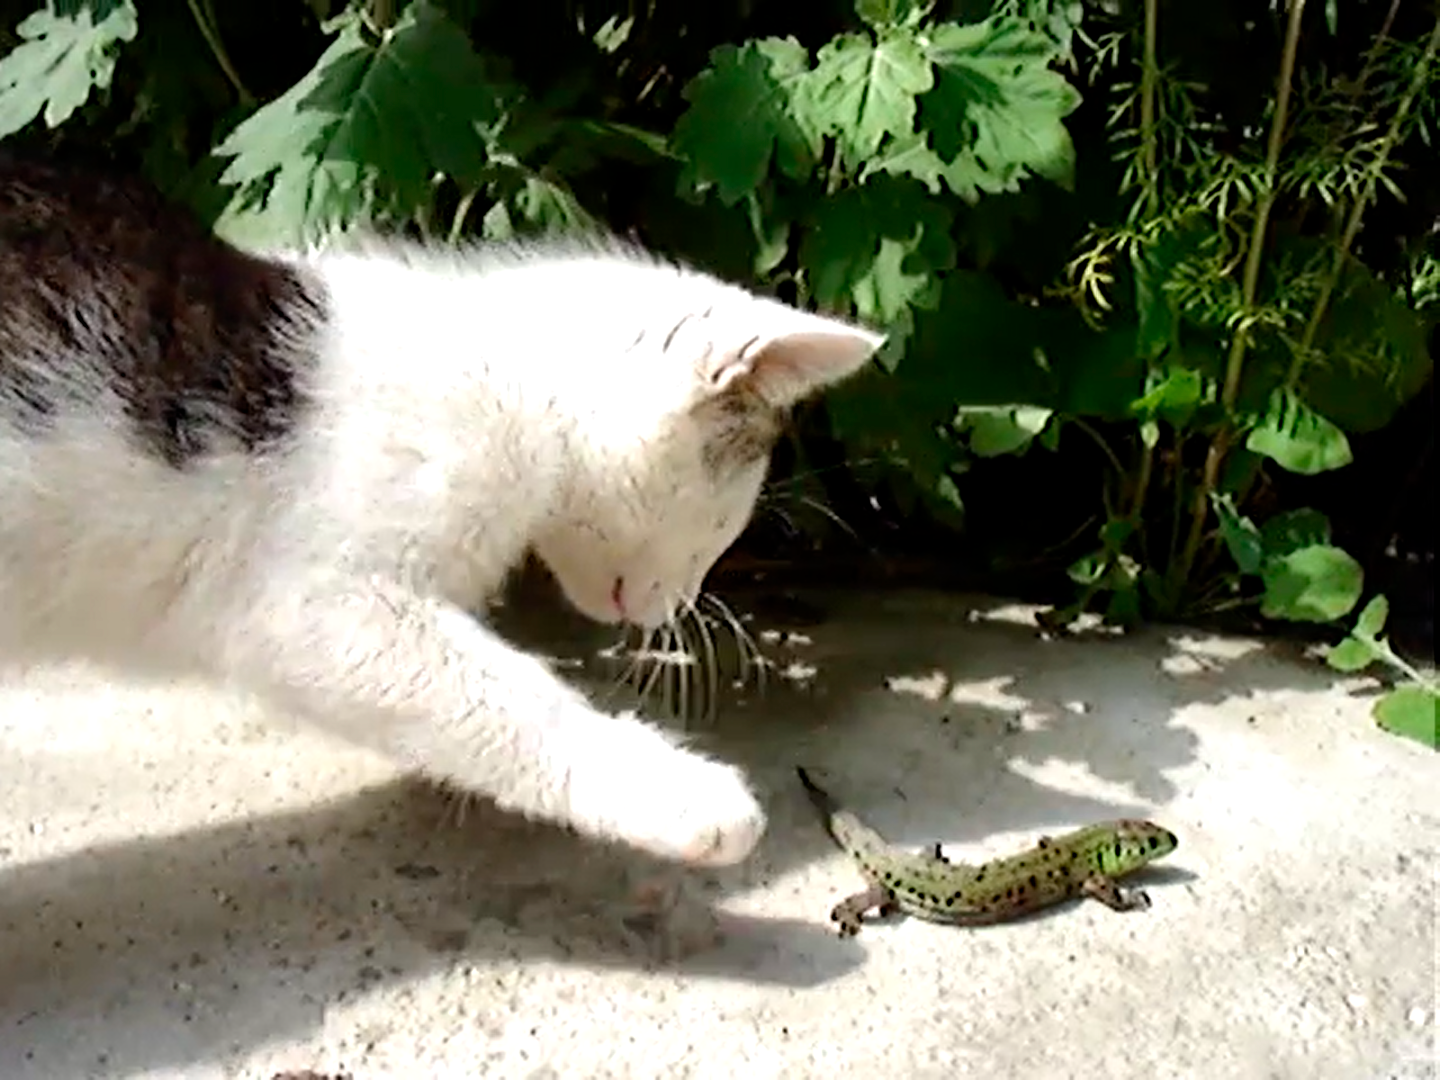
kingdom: Animalia
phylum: Chordata
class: Squamata
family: Lacertidae
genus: Lacerta
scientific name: Lacerta agilis
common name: Sand lizard
